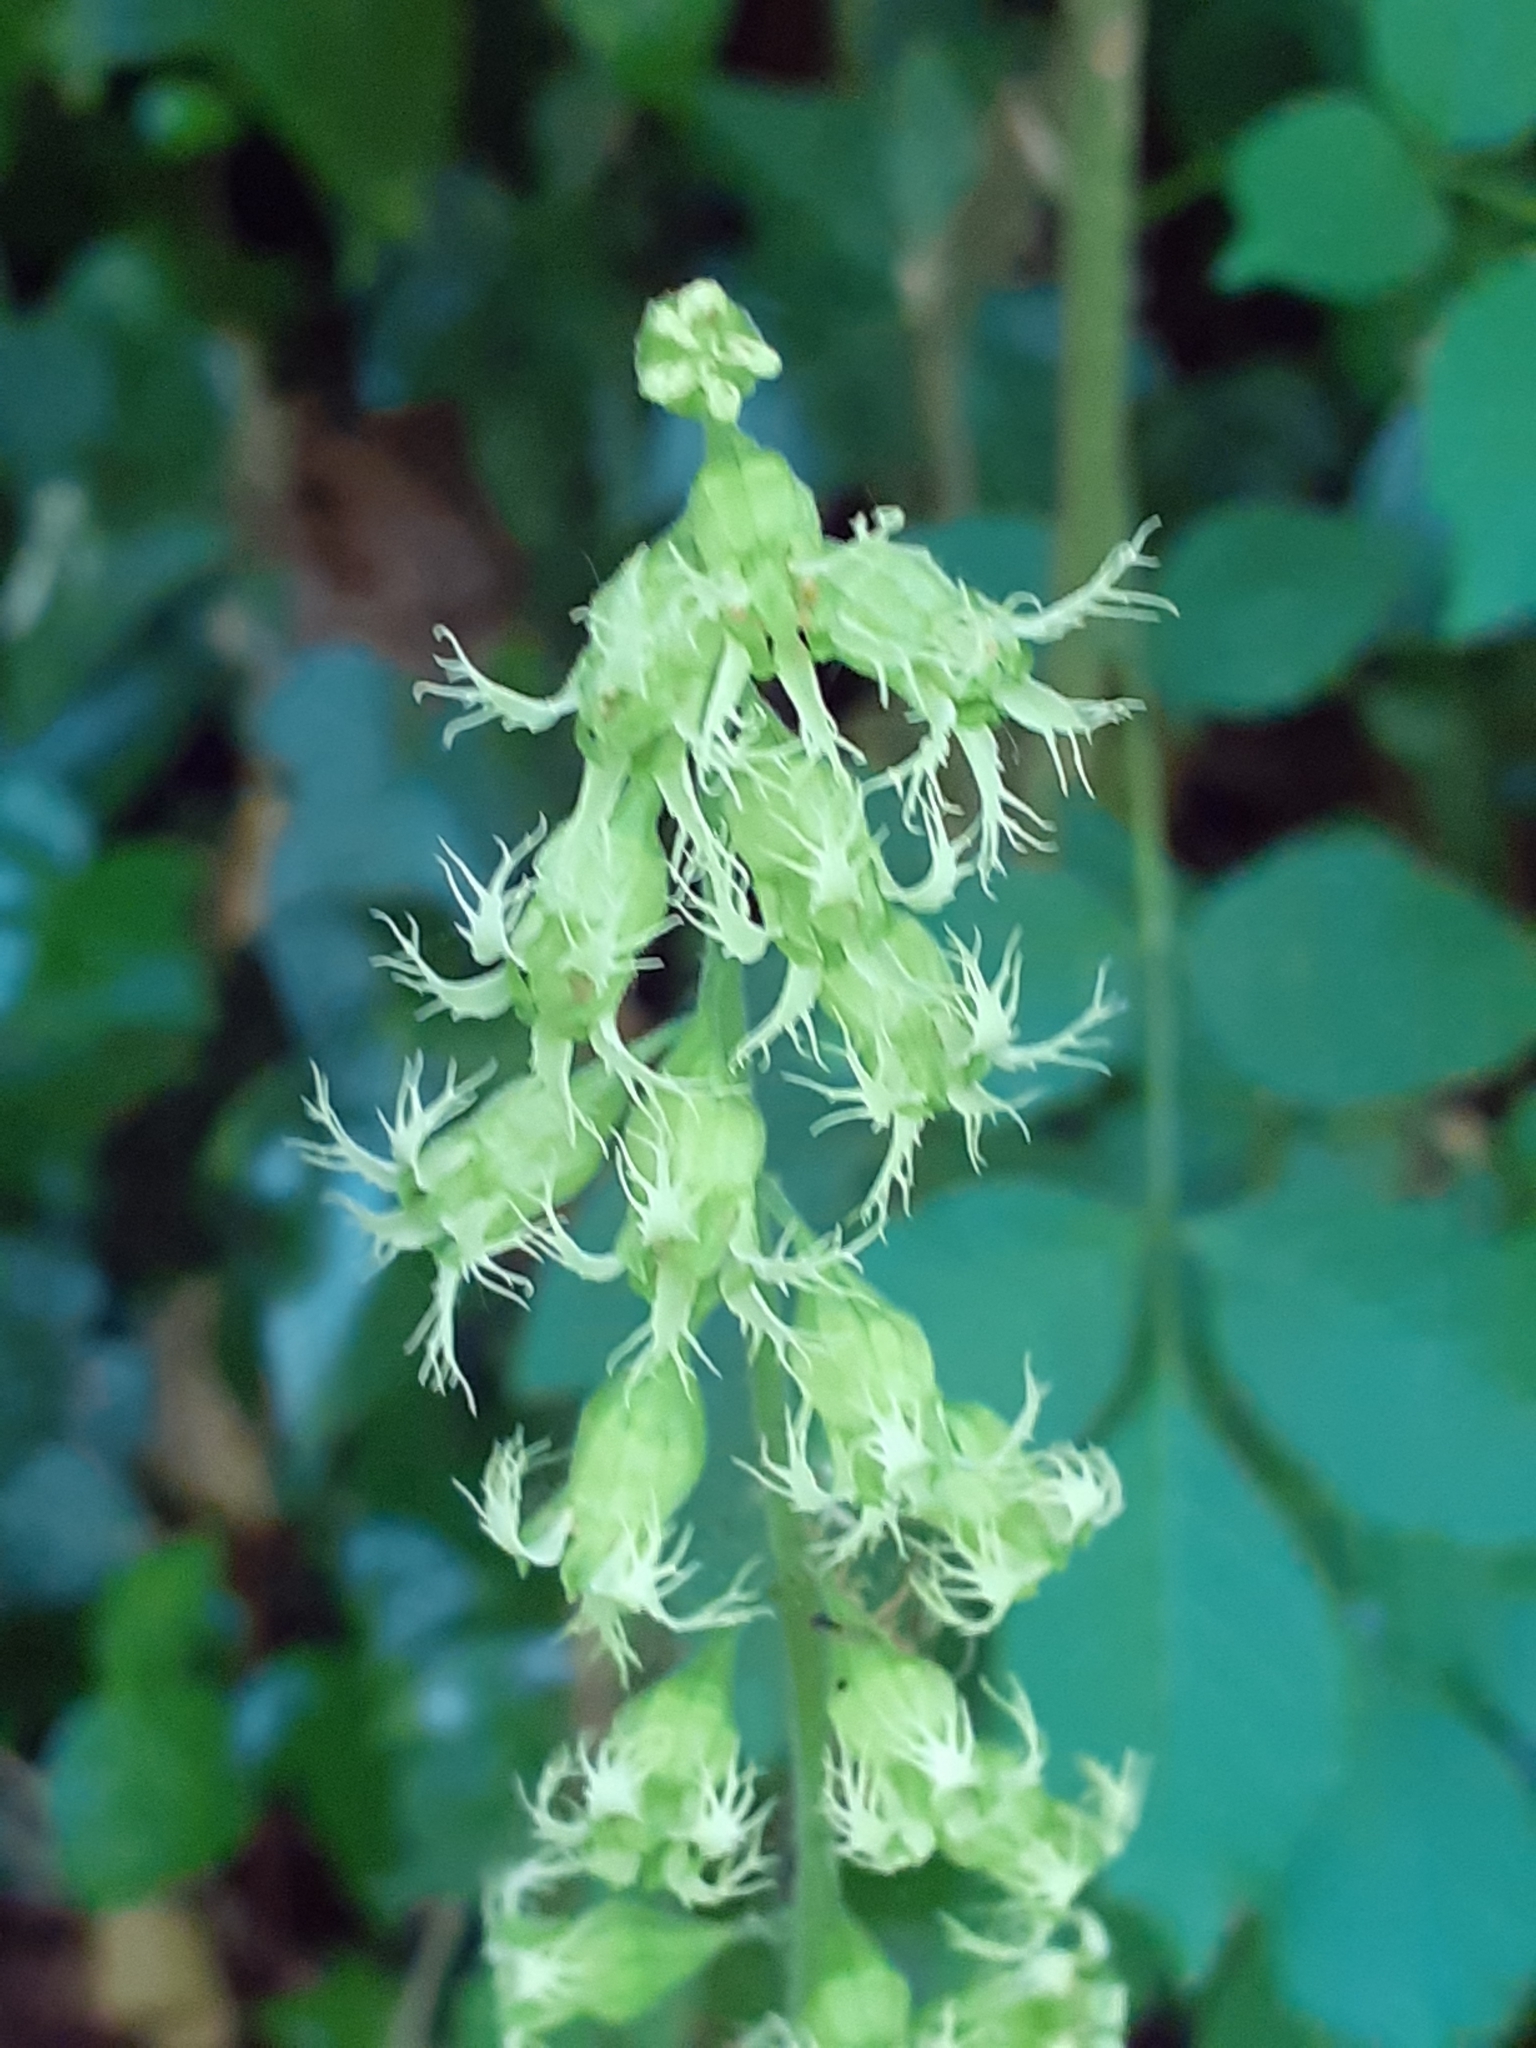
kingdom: Plantae
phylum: Tracheophyta
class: Magnoliopsida
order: Saxifragales
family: Saxifragaceae
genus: Tellima
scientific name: Tellima grandiflora
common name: Fringecups
